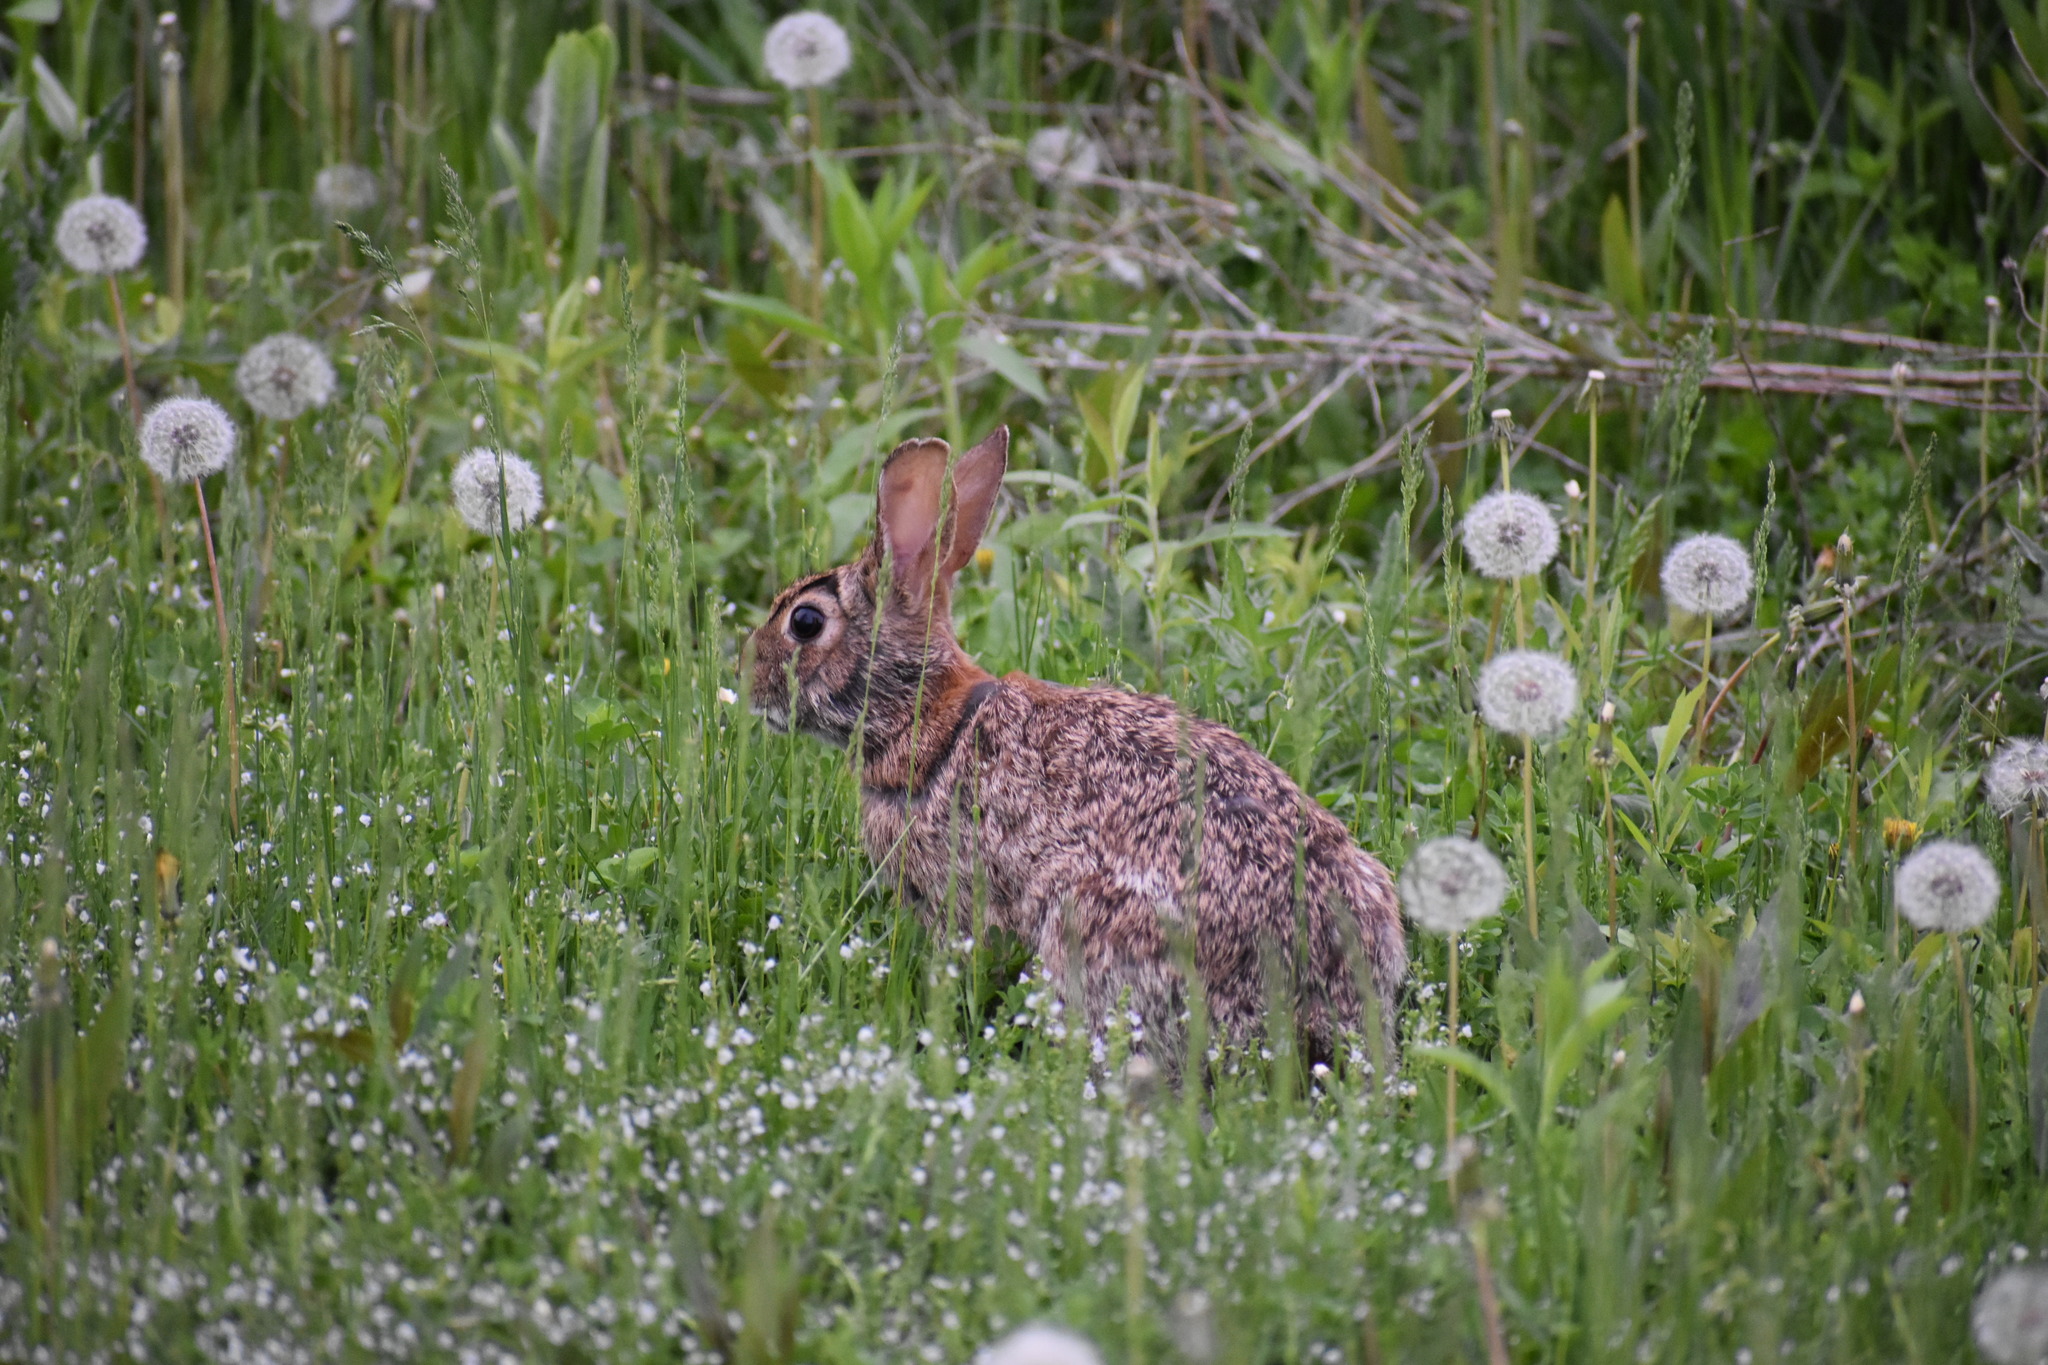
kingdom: Animalia
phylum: Chordata
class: Mammalia
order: Lagomorpha
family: Leporidae
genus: Sylvilagus
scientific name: Sylvilagus floridanus
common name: Eastern cottontail
